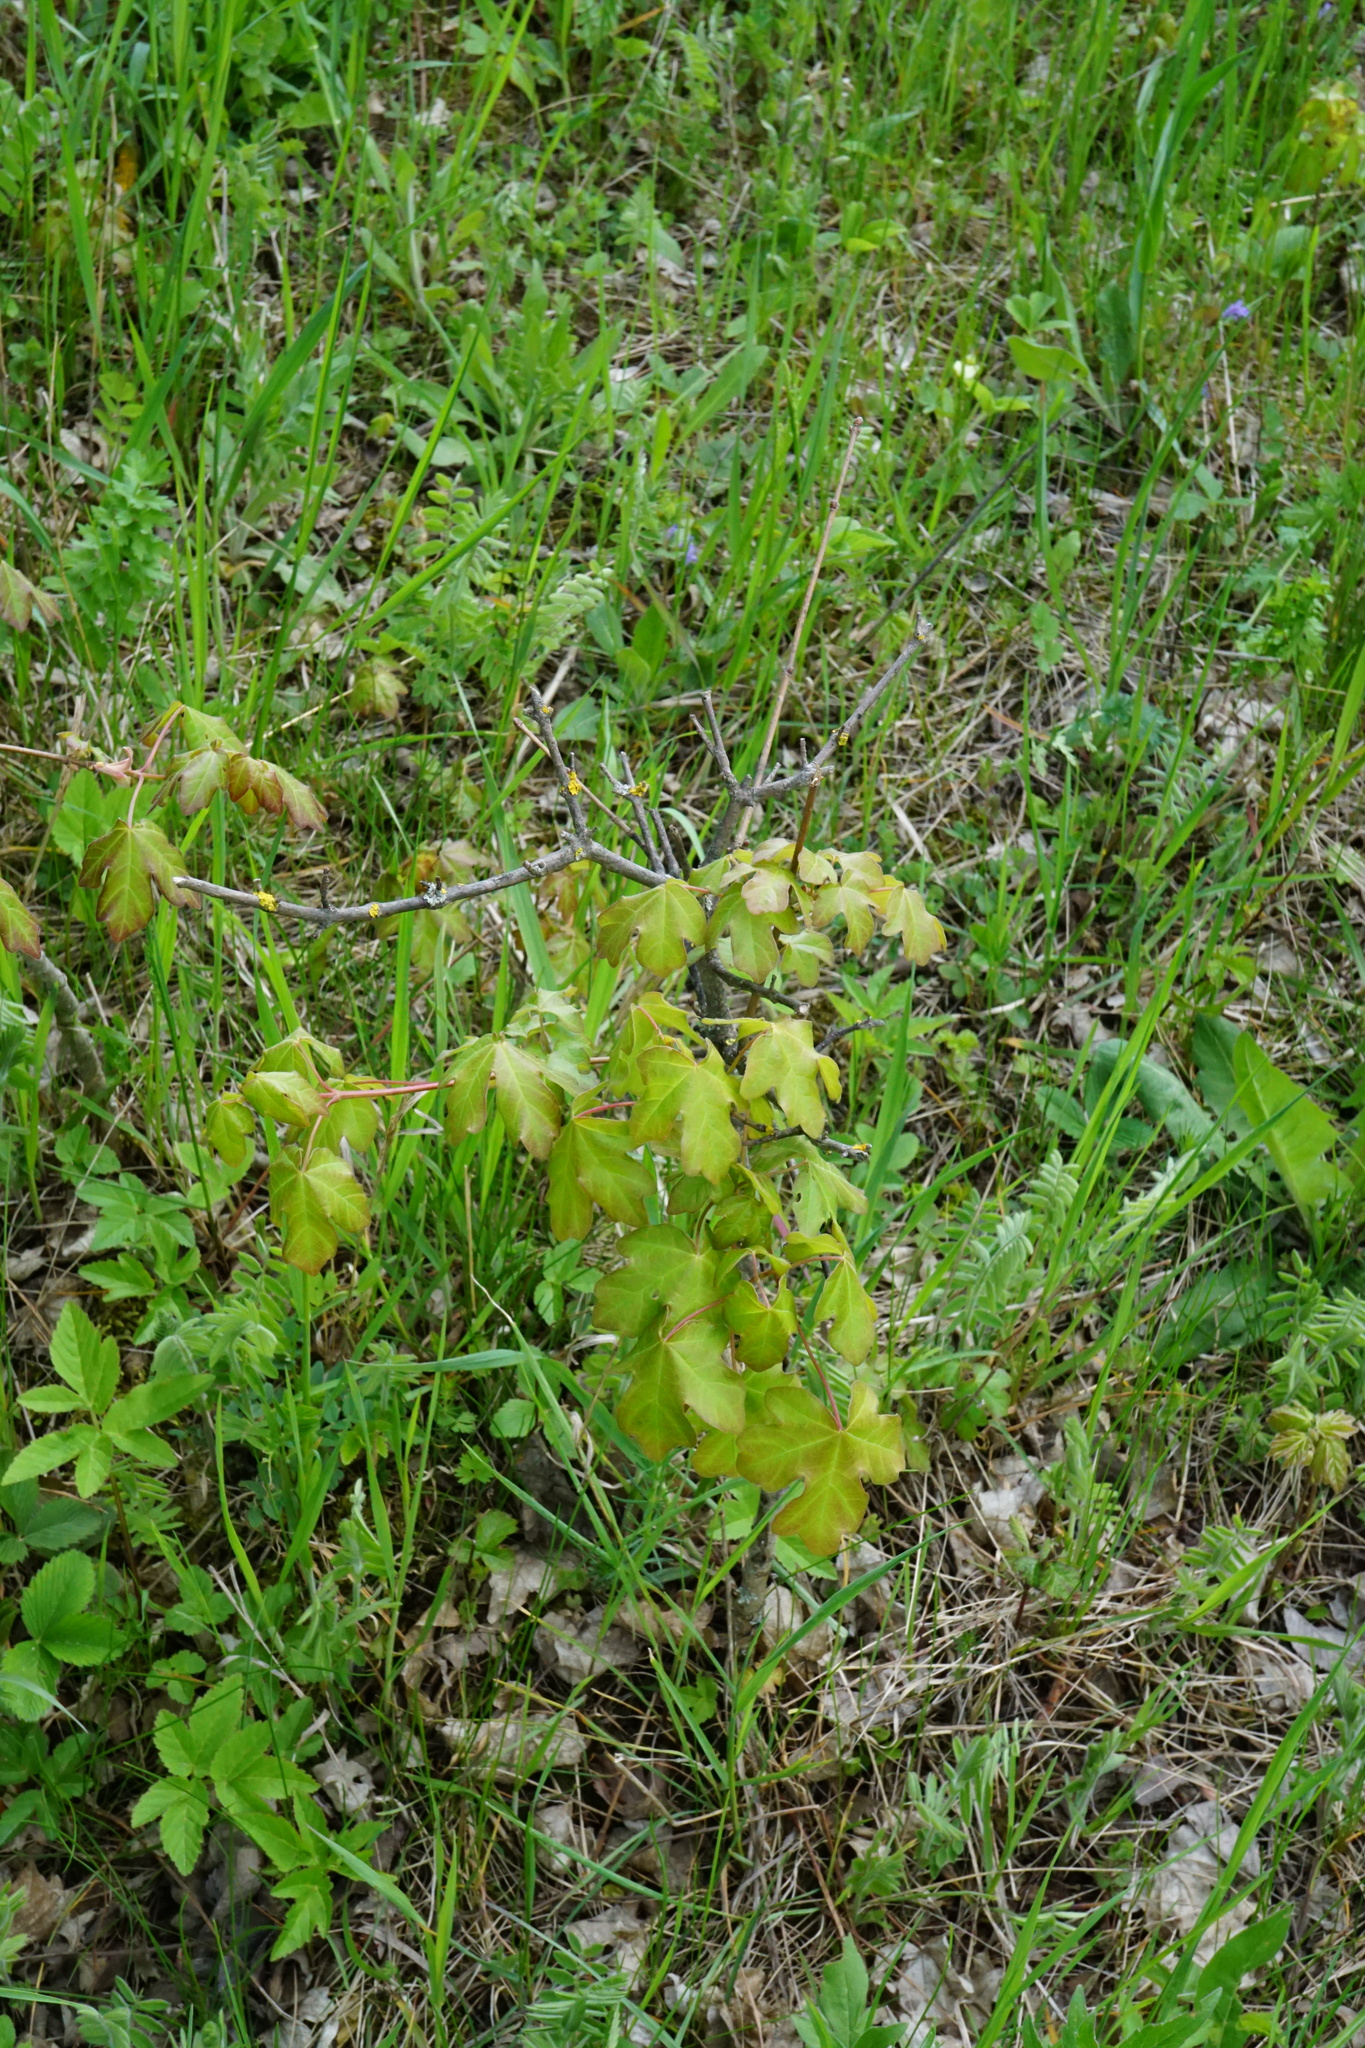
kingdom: Plantae
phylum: Tracheophyta
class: Magnoliopsida
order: Sapindales
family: Sapindaceae
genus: Acer
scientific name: Acer campestre
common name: Field maple
